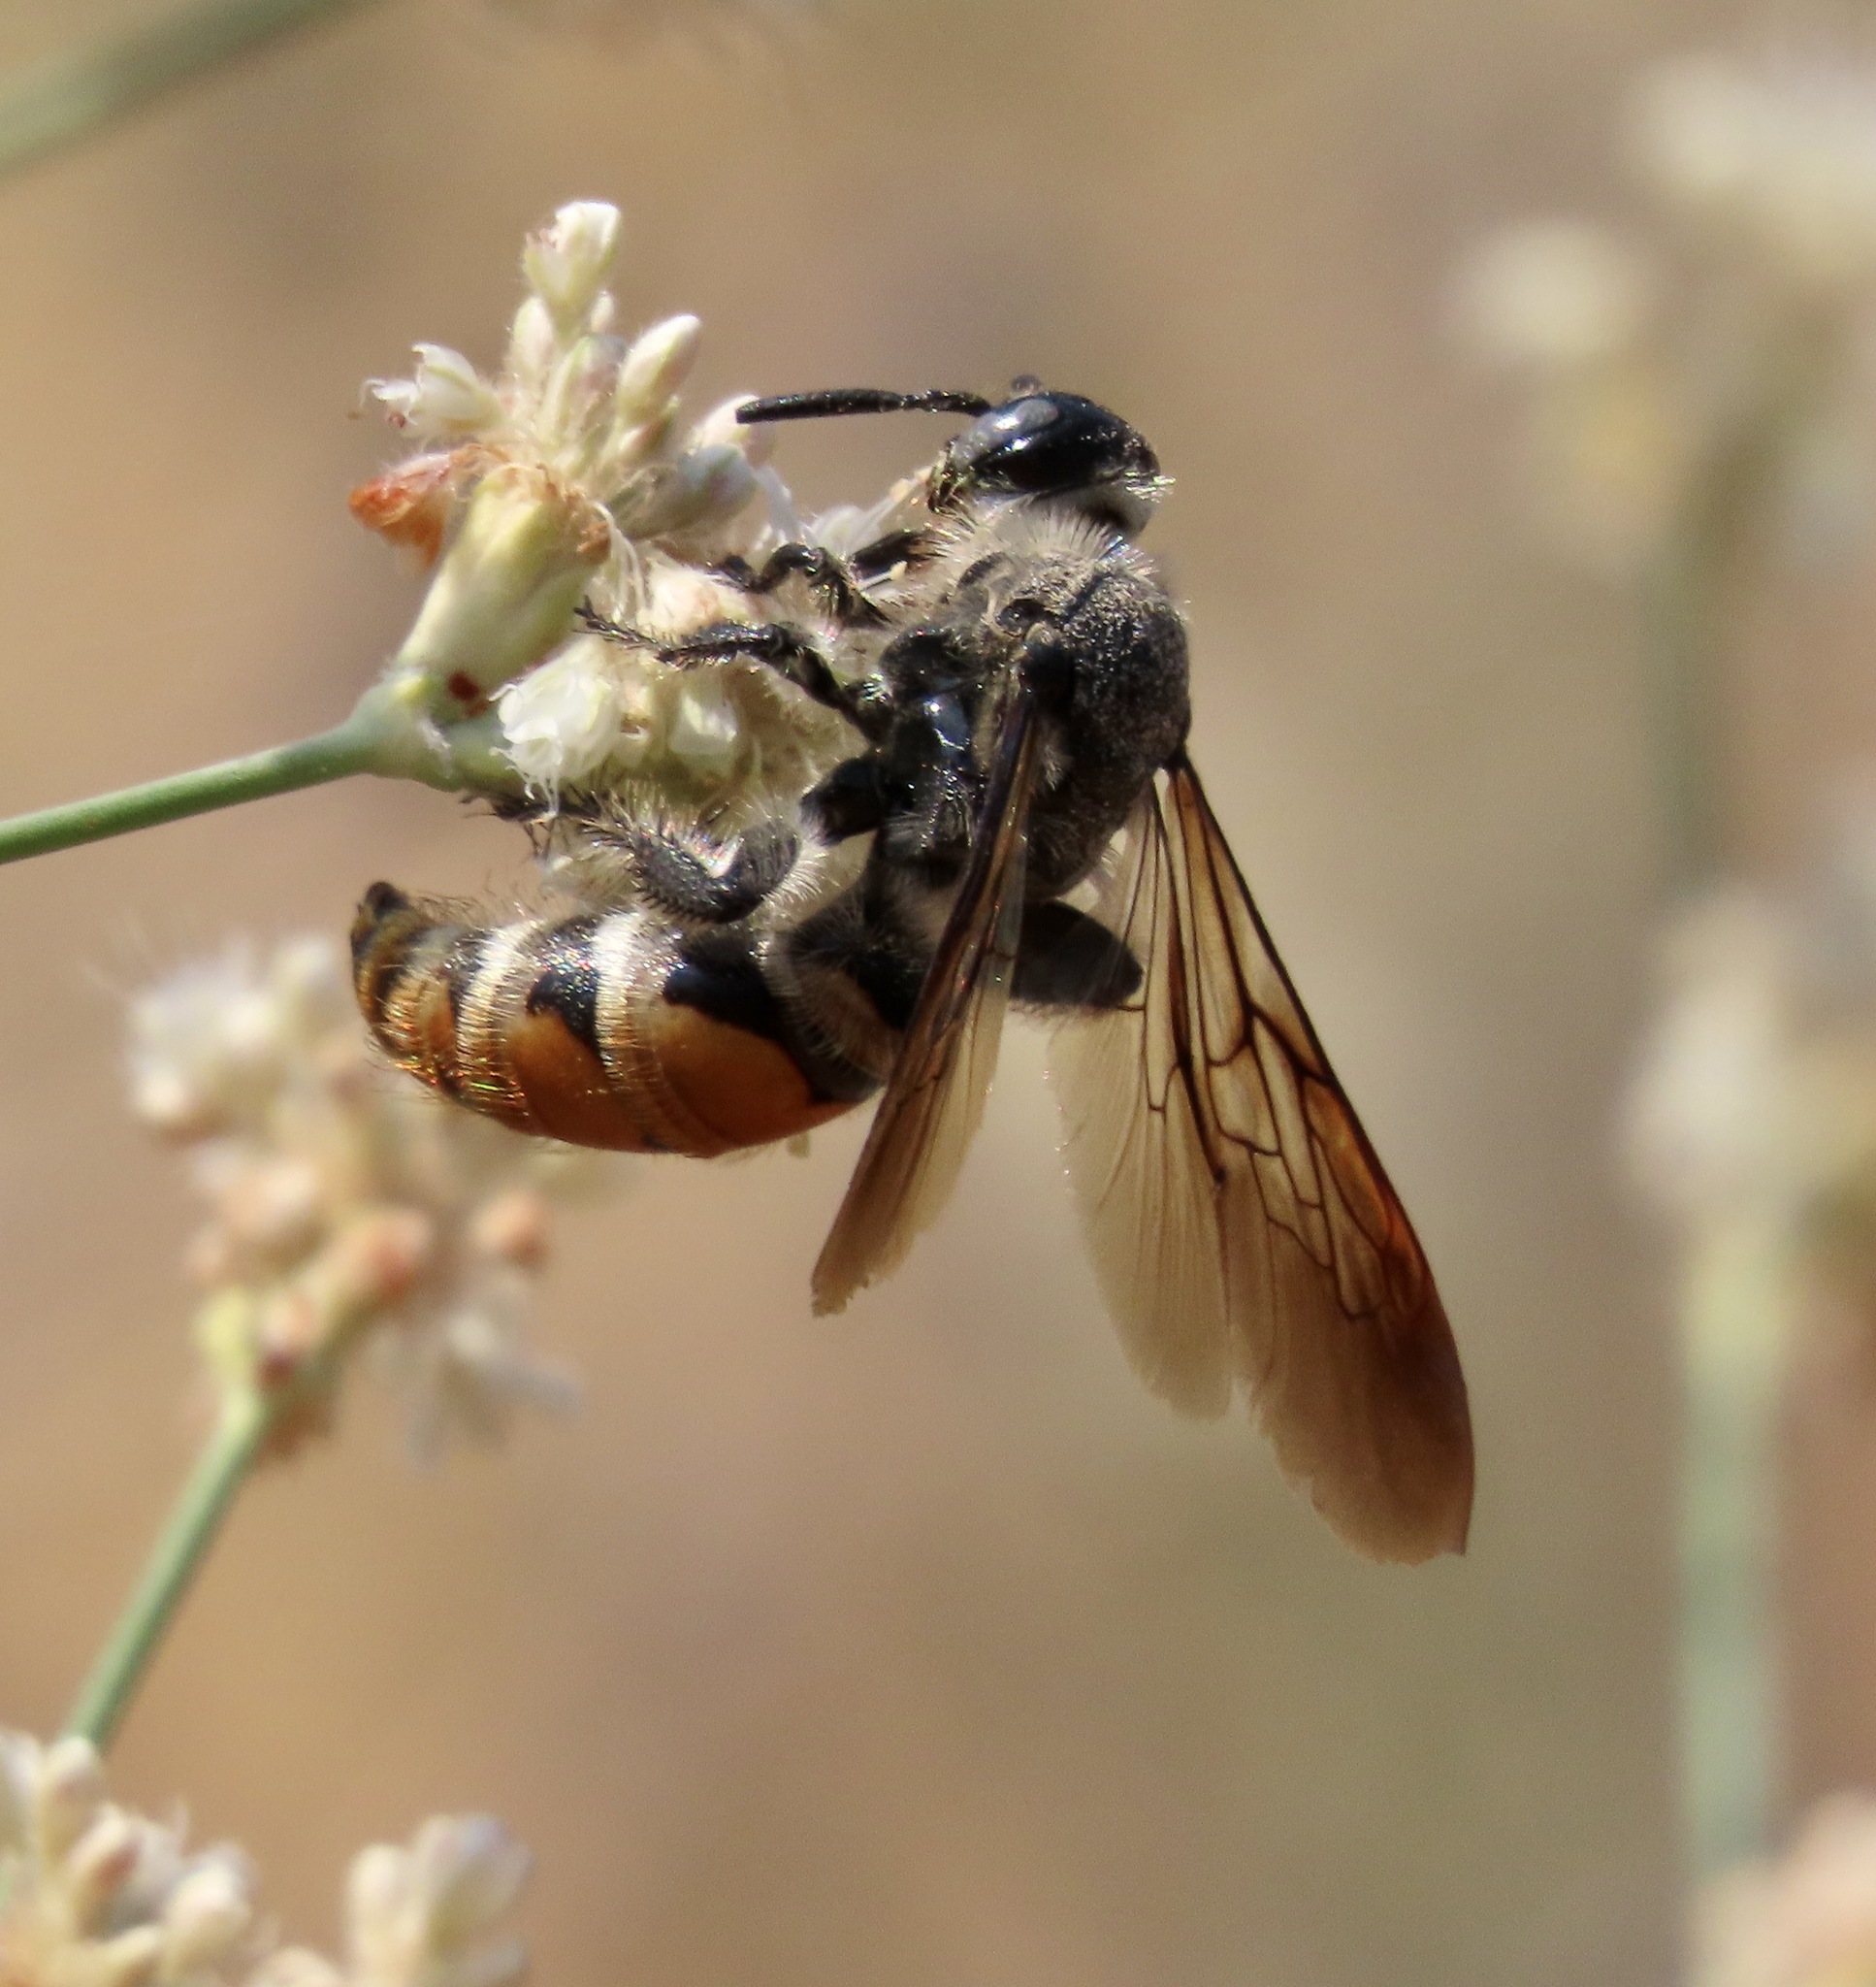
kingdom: Animalia
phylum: Arthropoda
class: Insecta
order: Hymenoptera
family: Scoliidae
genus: Dielis
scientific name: Dielis tolteca
